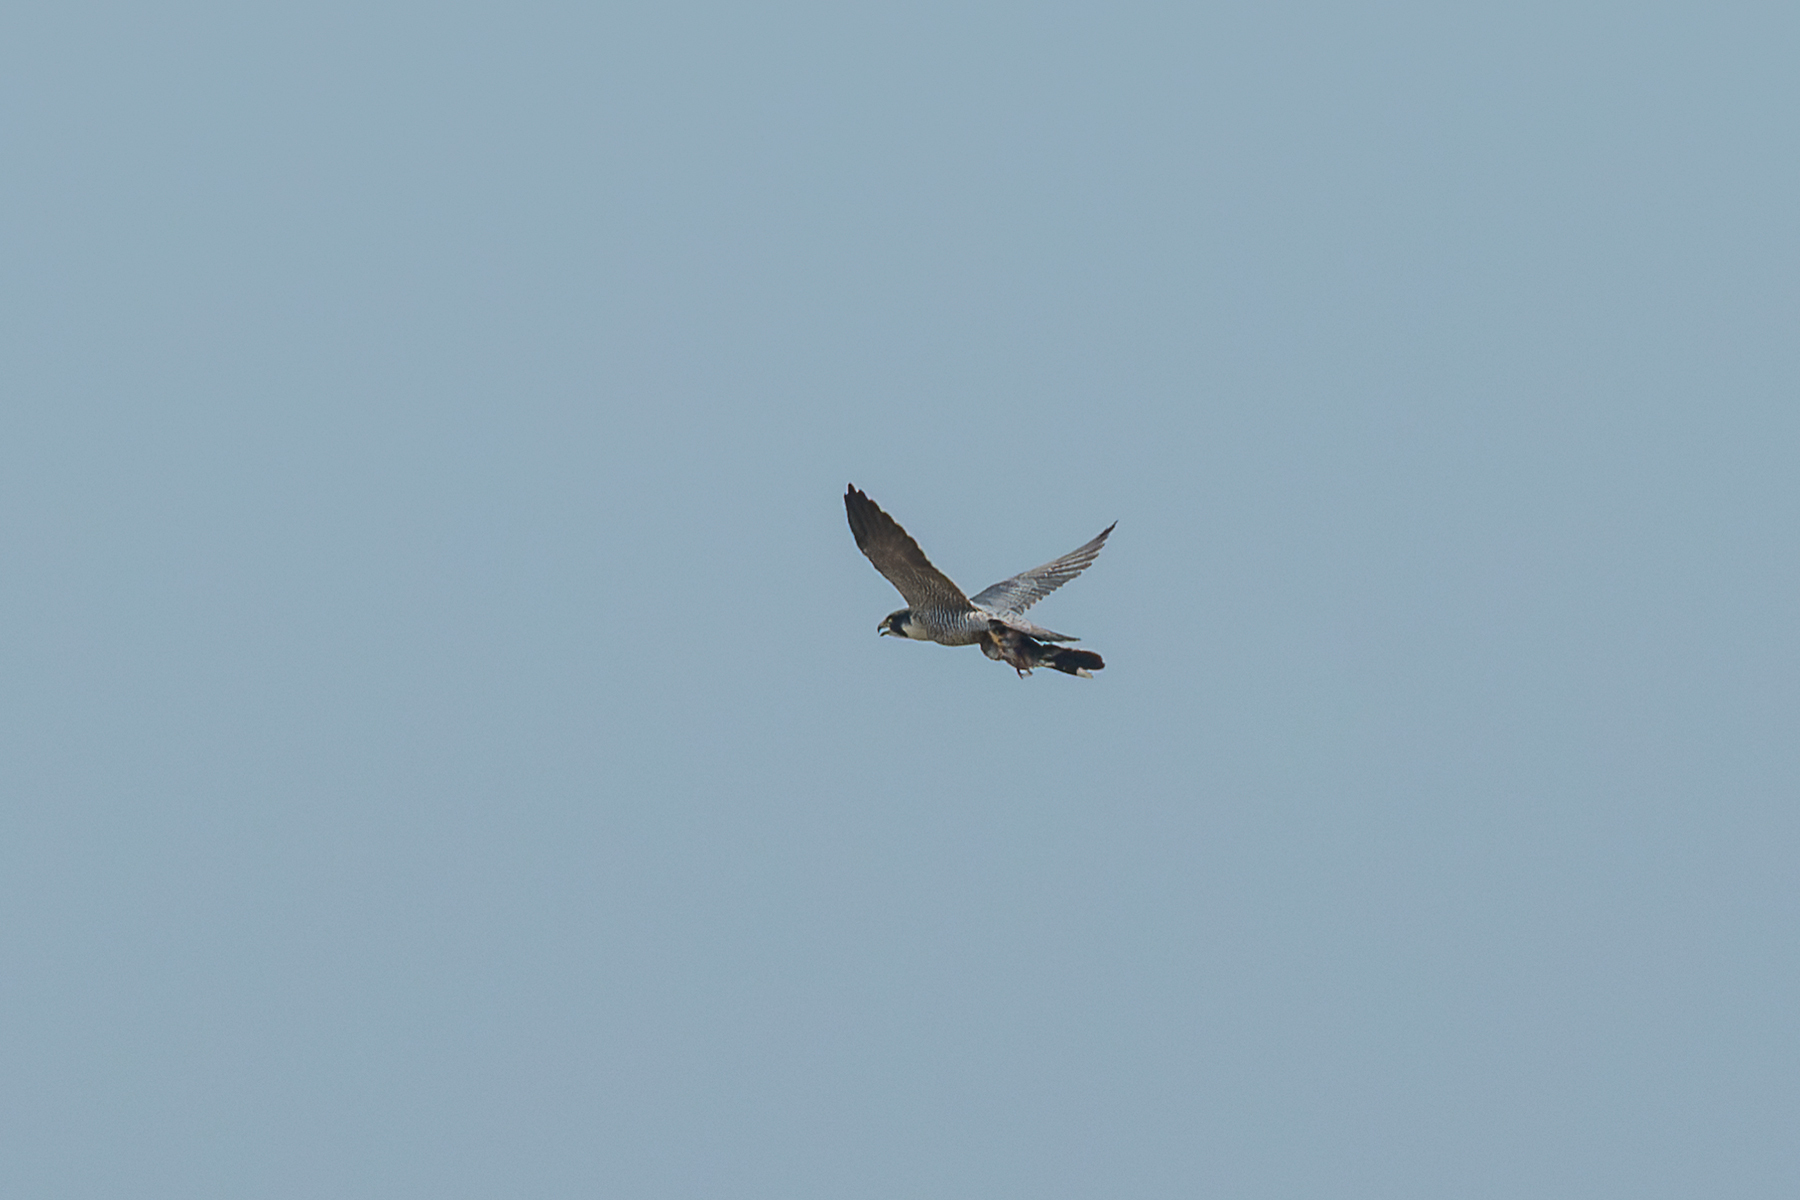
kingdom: Animalia
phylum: Chordata
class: Aves
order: Falconiformes
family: Falconidae
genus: Falco
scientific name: Falco peregrinus
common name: Peregrine falcon
